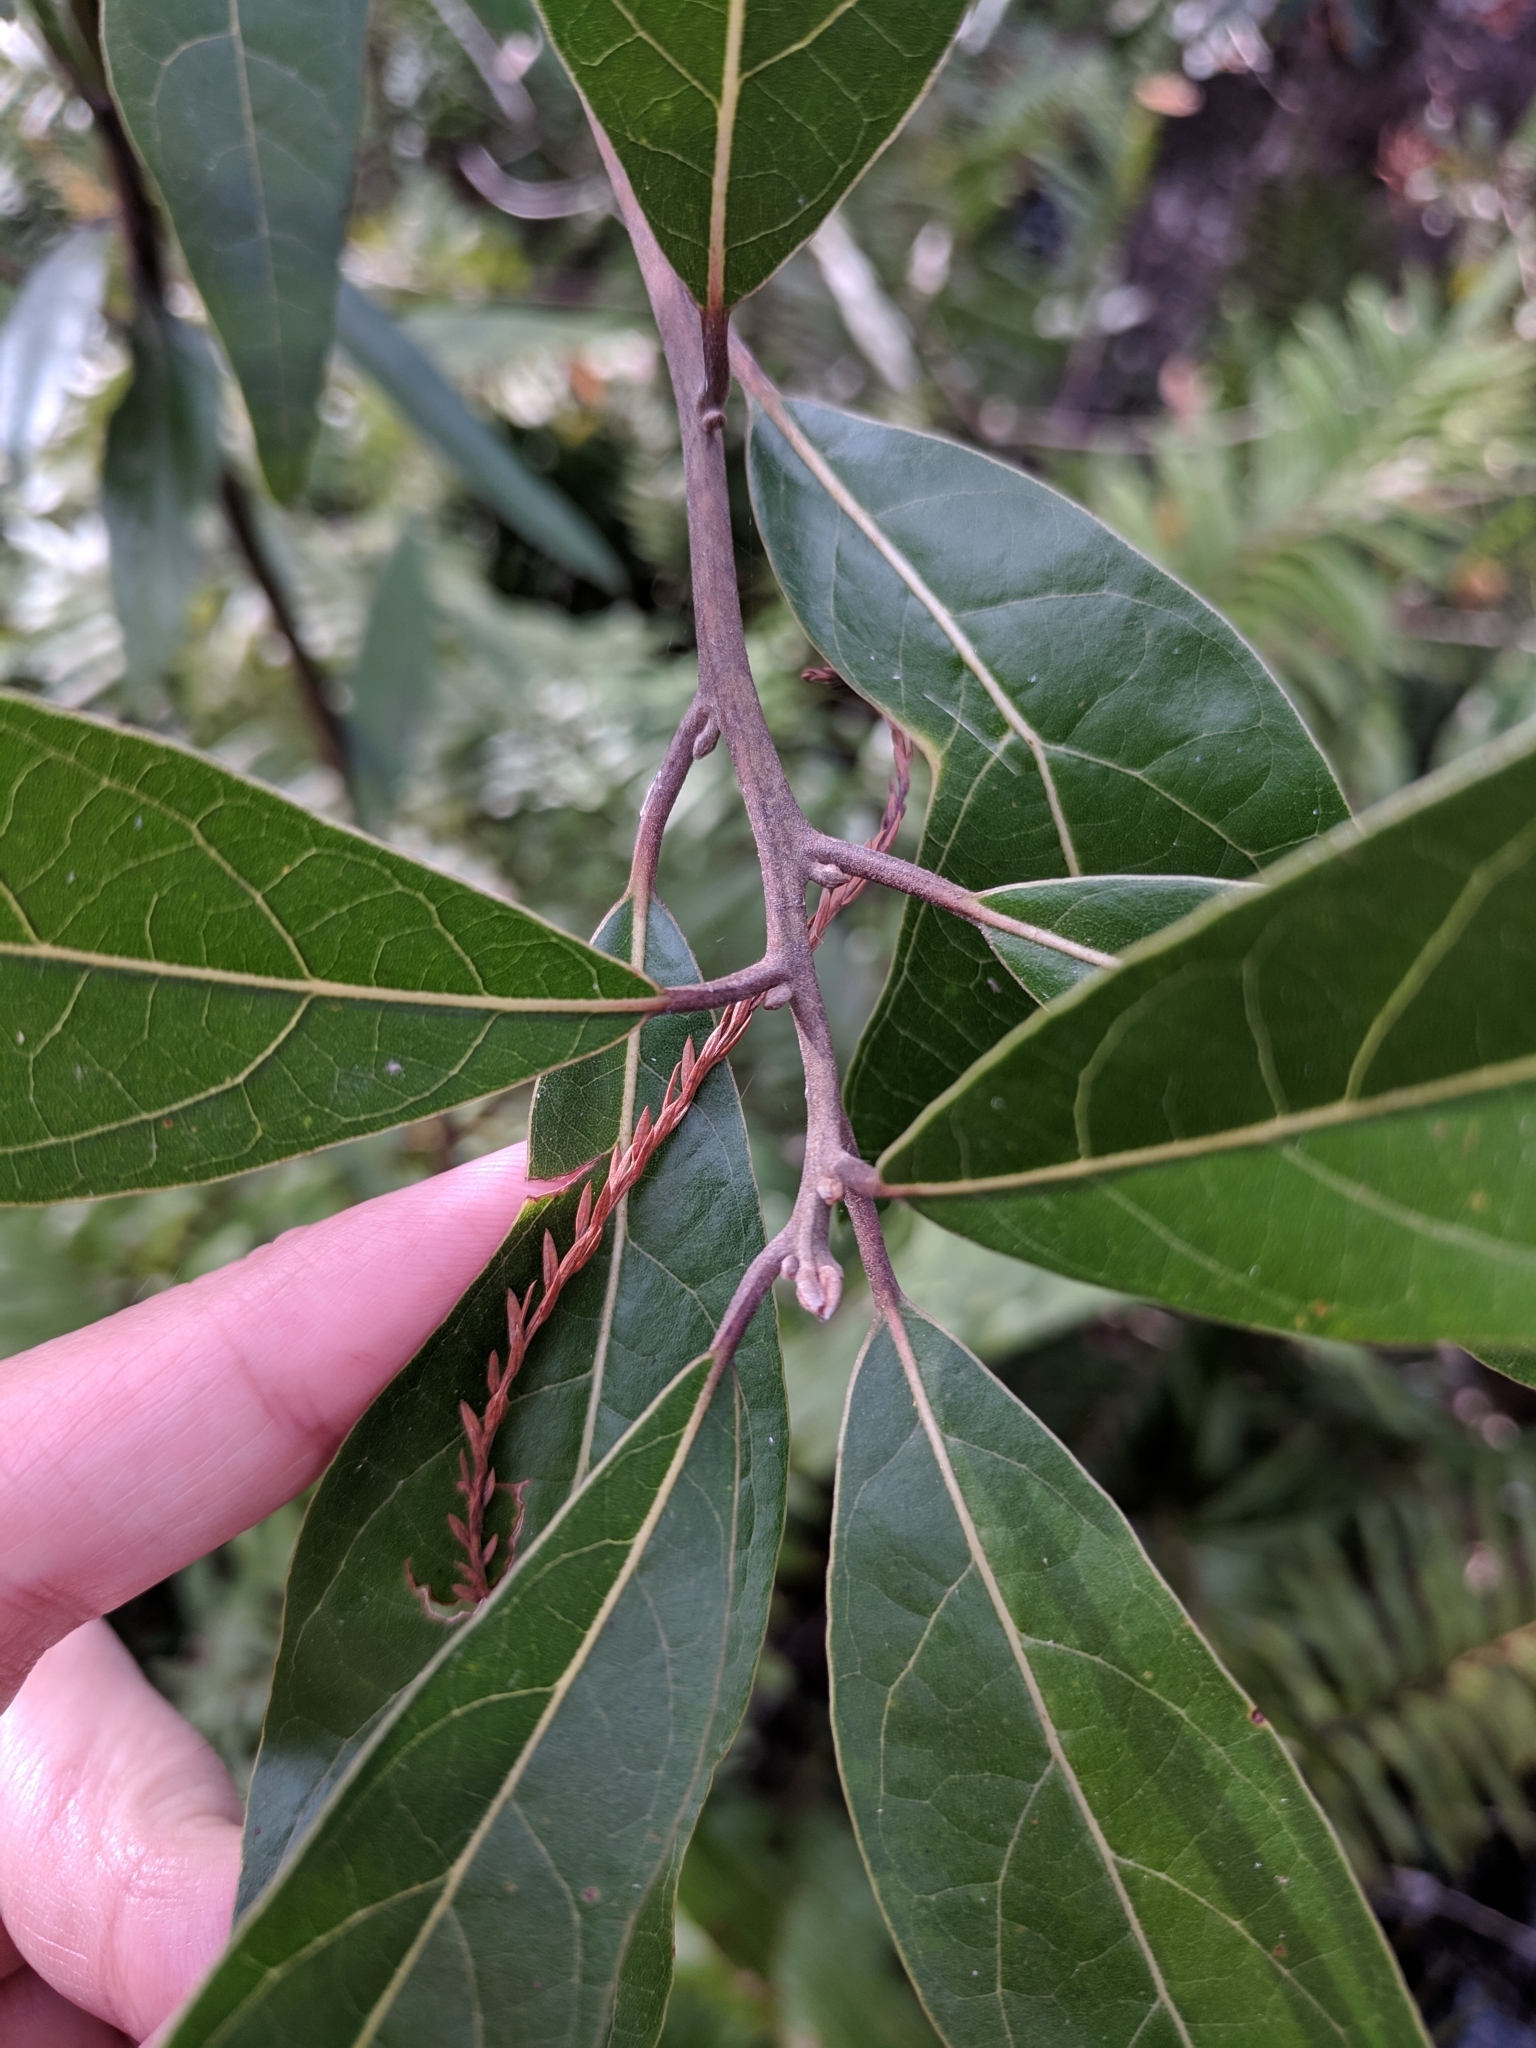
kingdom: Plantae
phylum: Tracheophyta
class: Magnoliopsida
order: Laurales
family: Lauraceae
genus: Persea
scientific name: Persea palustris
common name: Swampbay
